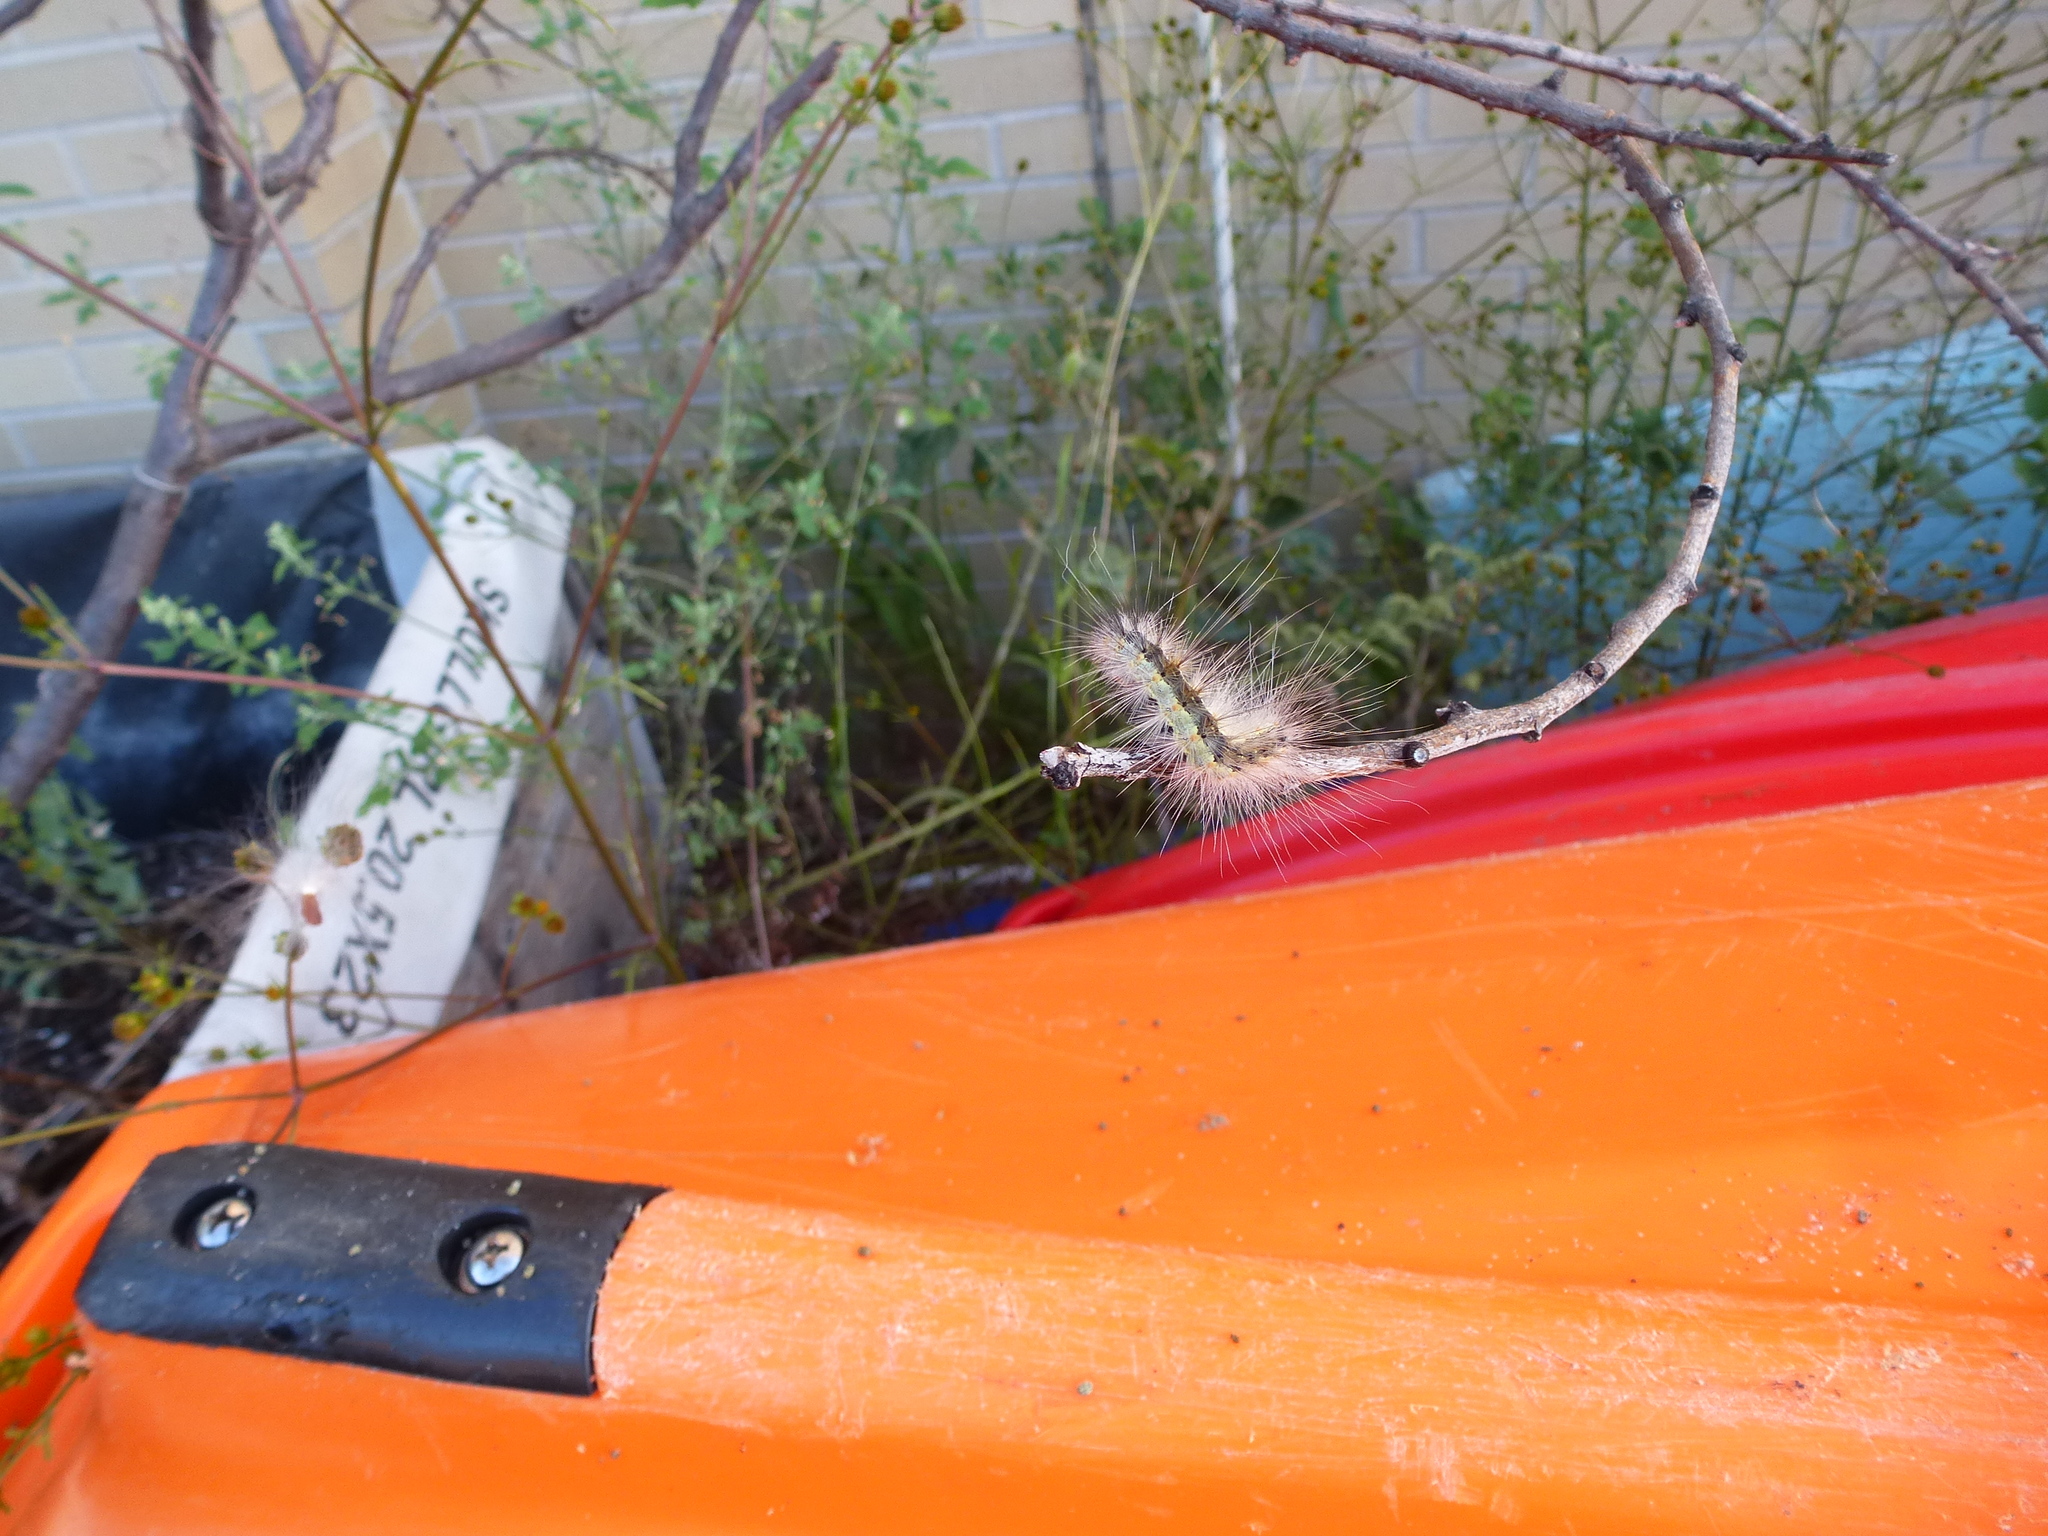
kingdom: Animalia
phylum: Arthropoda
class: Insecta
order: Lepidoptera
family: Erebidae
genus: Hyphantria
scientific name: Hyphantria cunea
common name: American white moth
